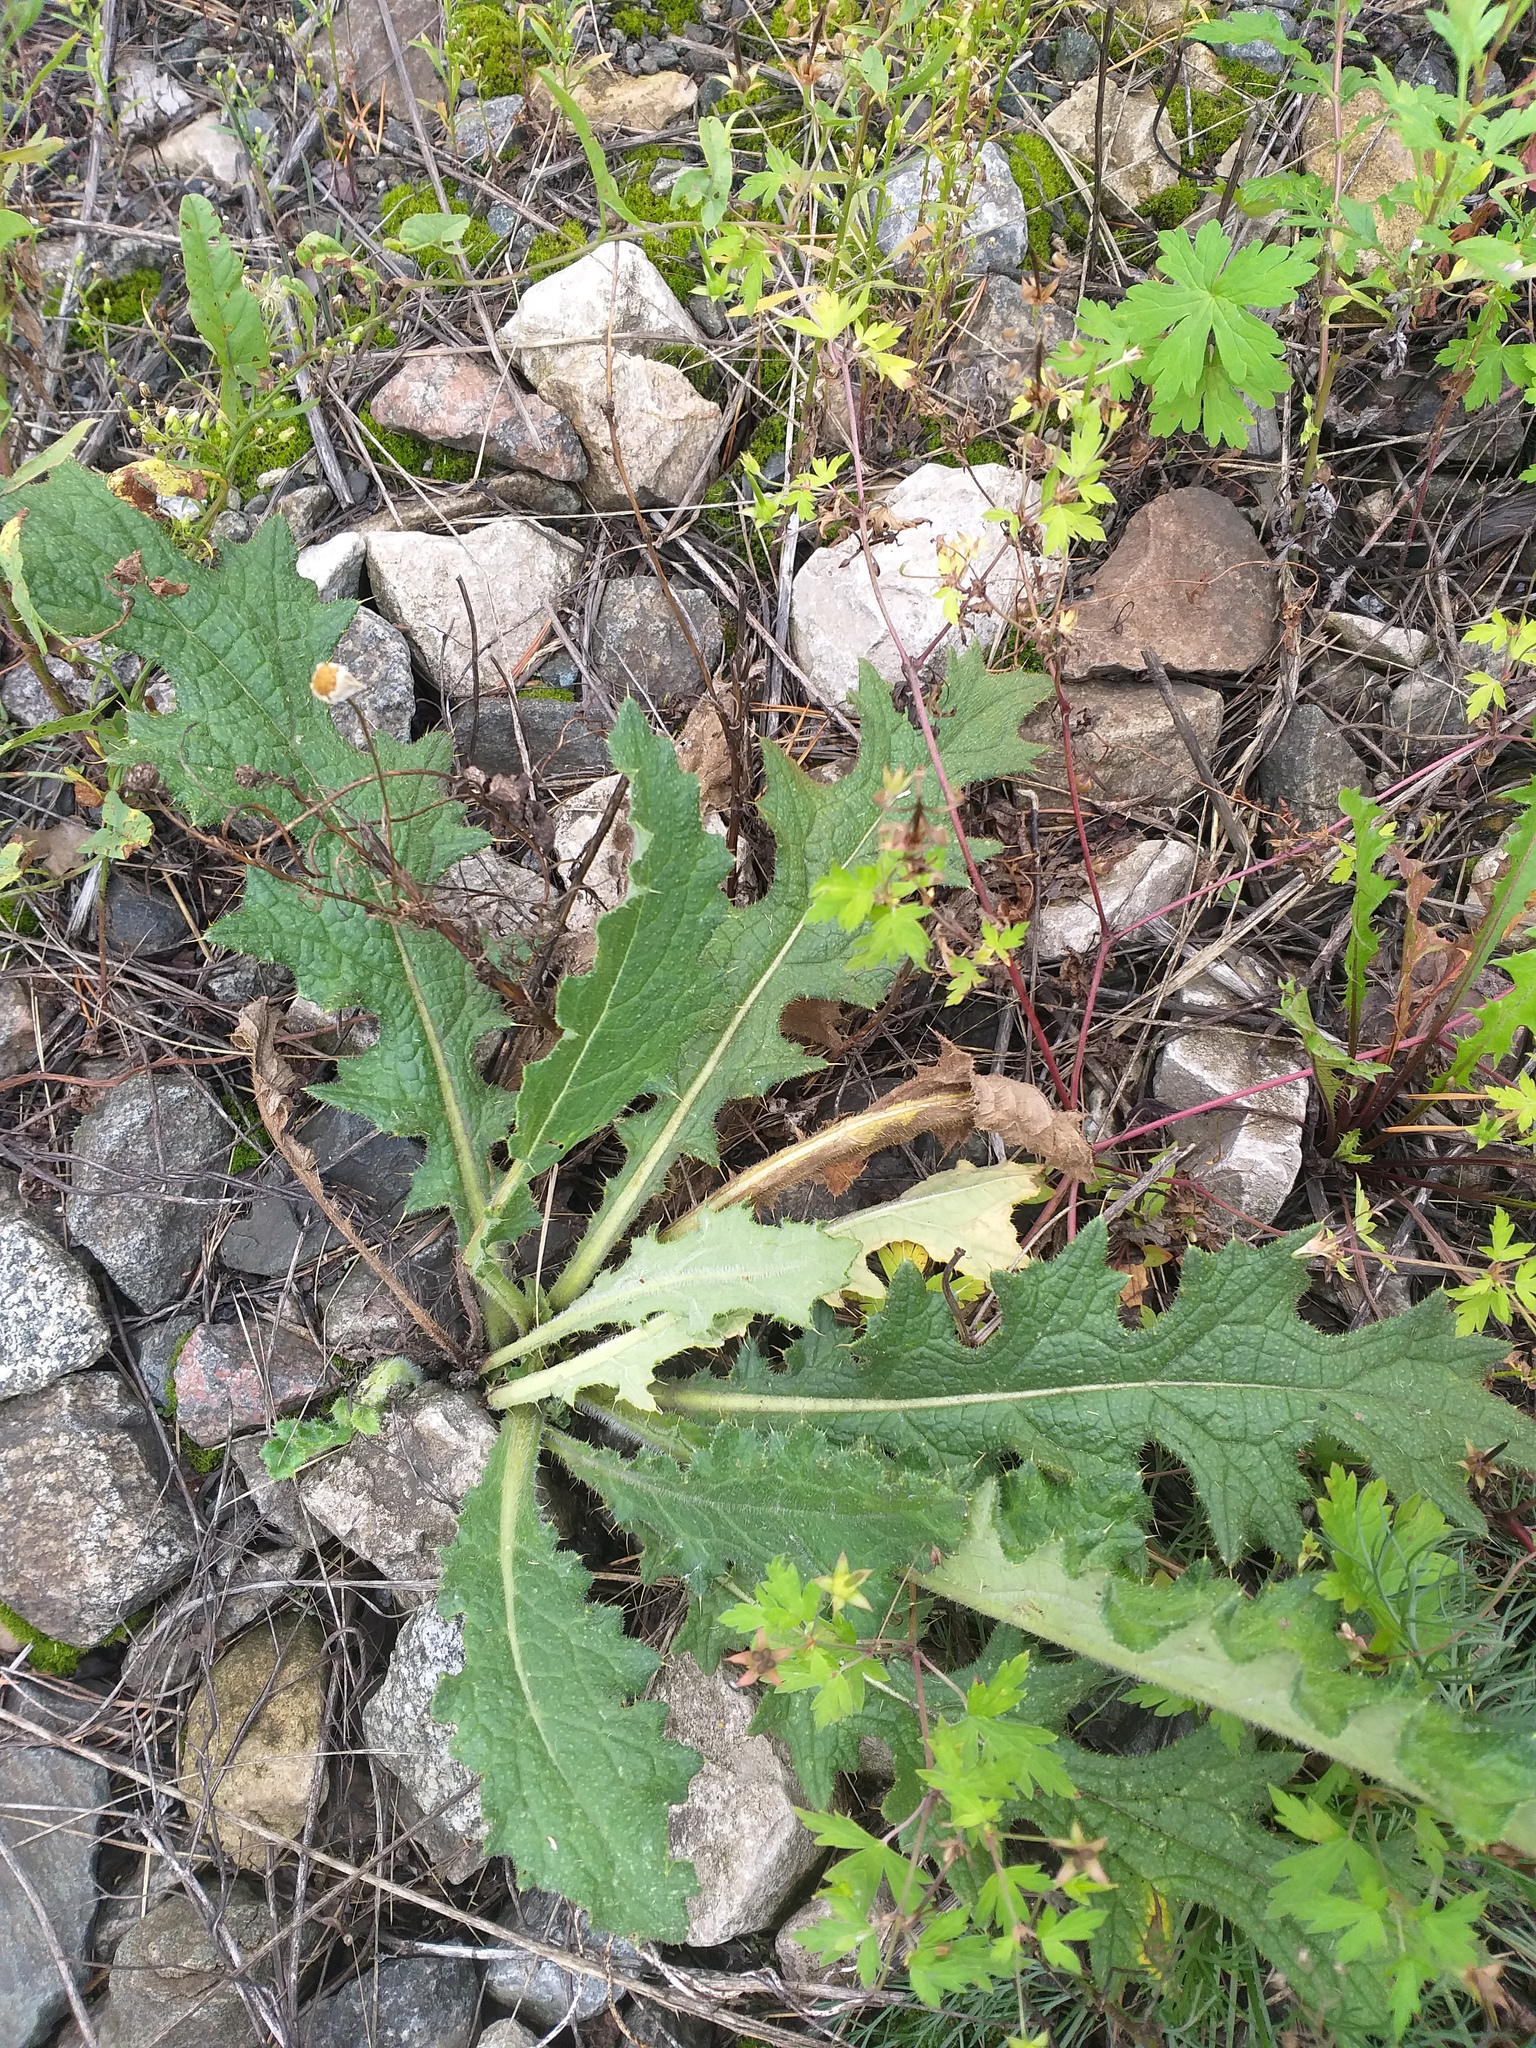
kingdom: Plantae
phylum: Tracheophyta
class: Magnoliopsida
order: Asterales
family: Asteraceae
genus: Cirsium
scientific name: Cirsium vulgare
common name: Bull thistle
